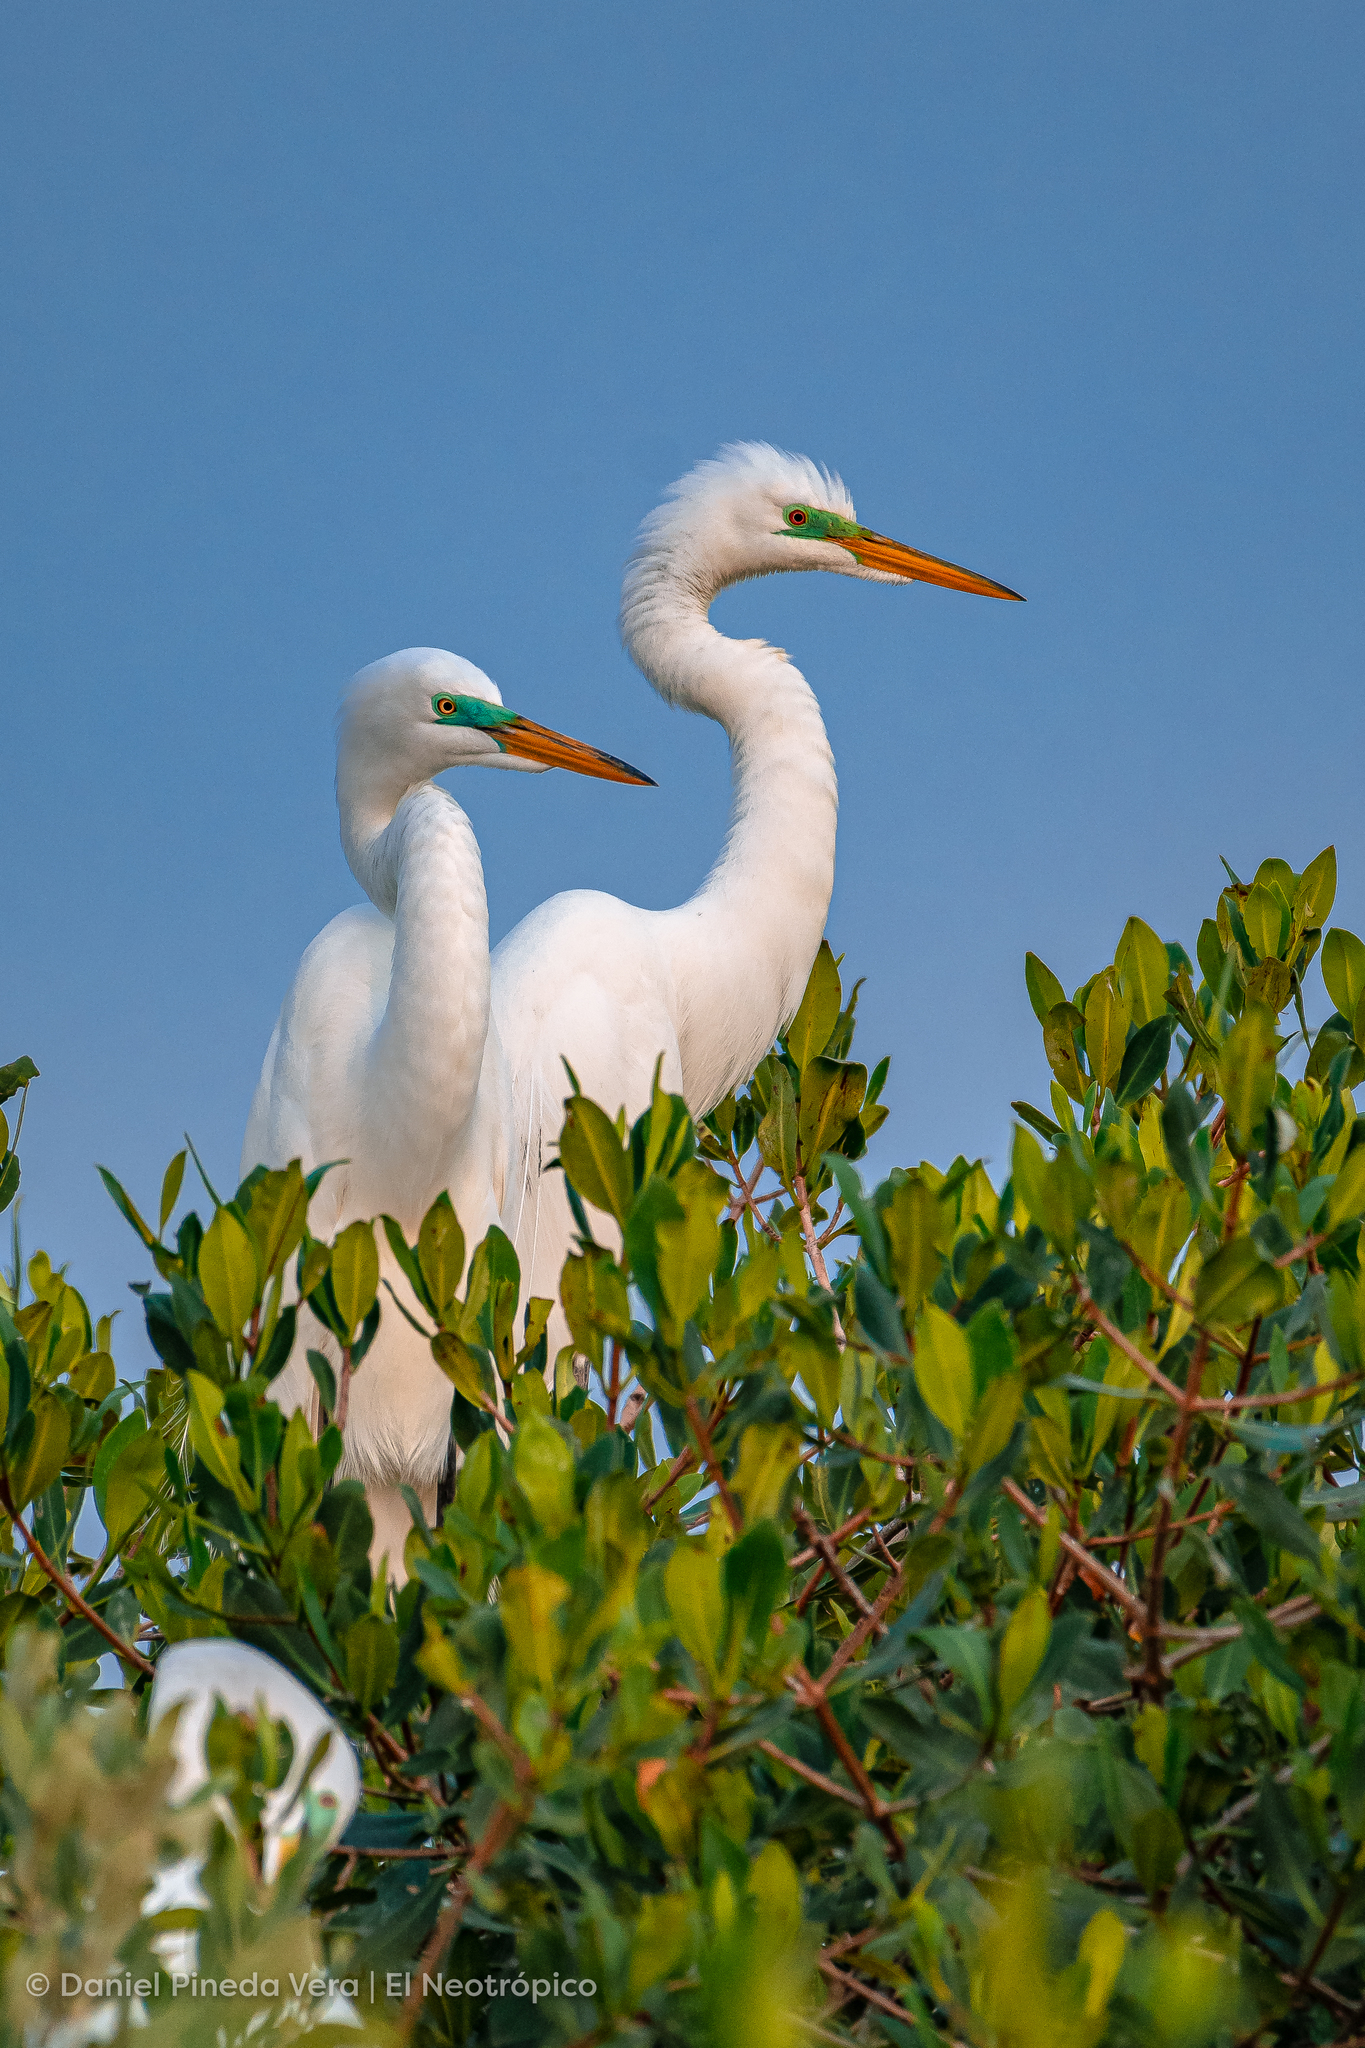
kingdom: Animalia
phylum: Chordata
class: Aves
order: Pelecaniformes
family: Ardeidae
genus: Ardea
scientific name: Ardea alba
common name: Great egret
